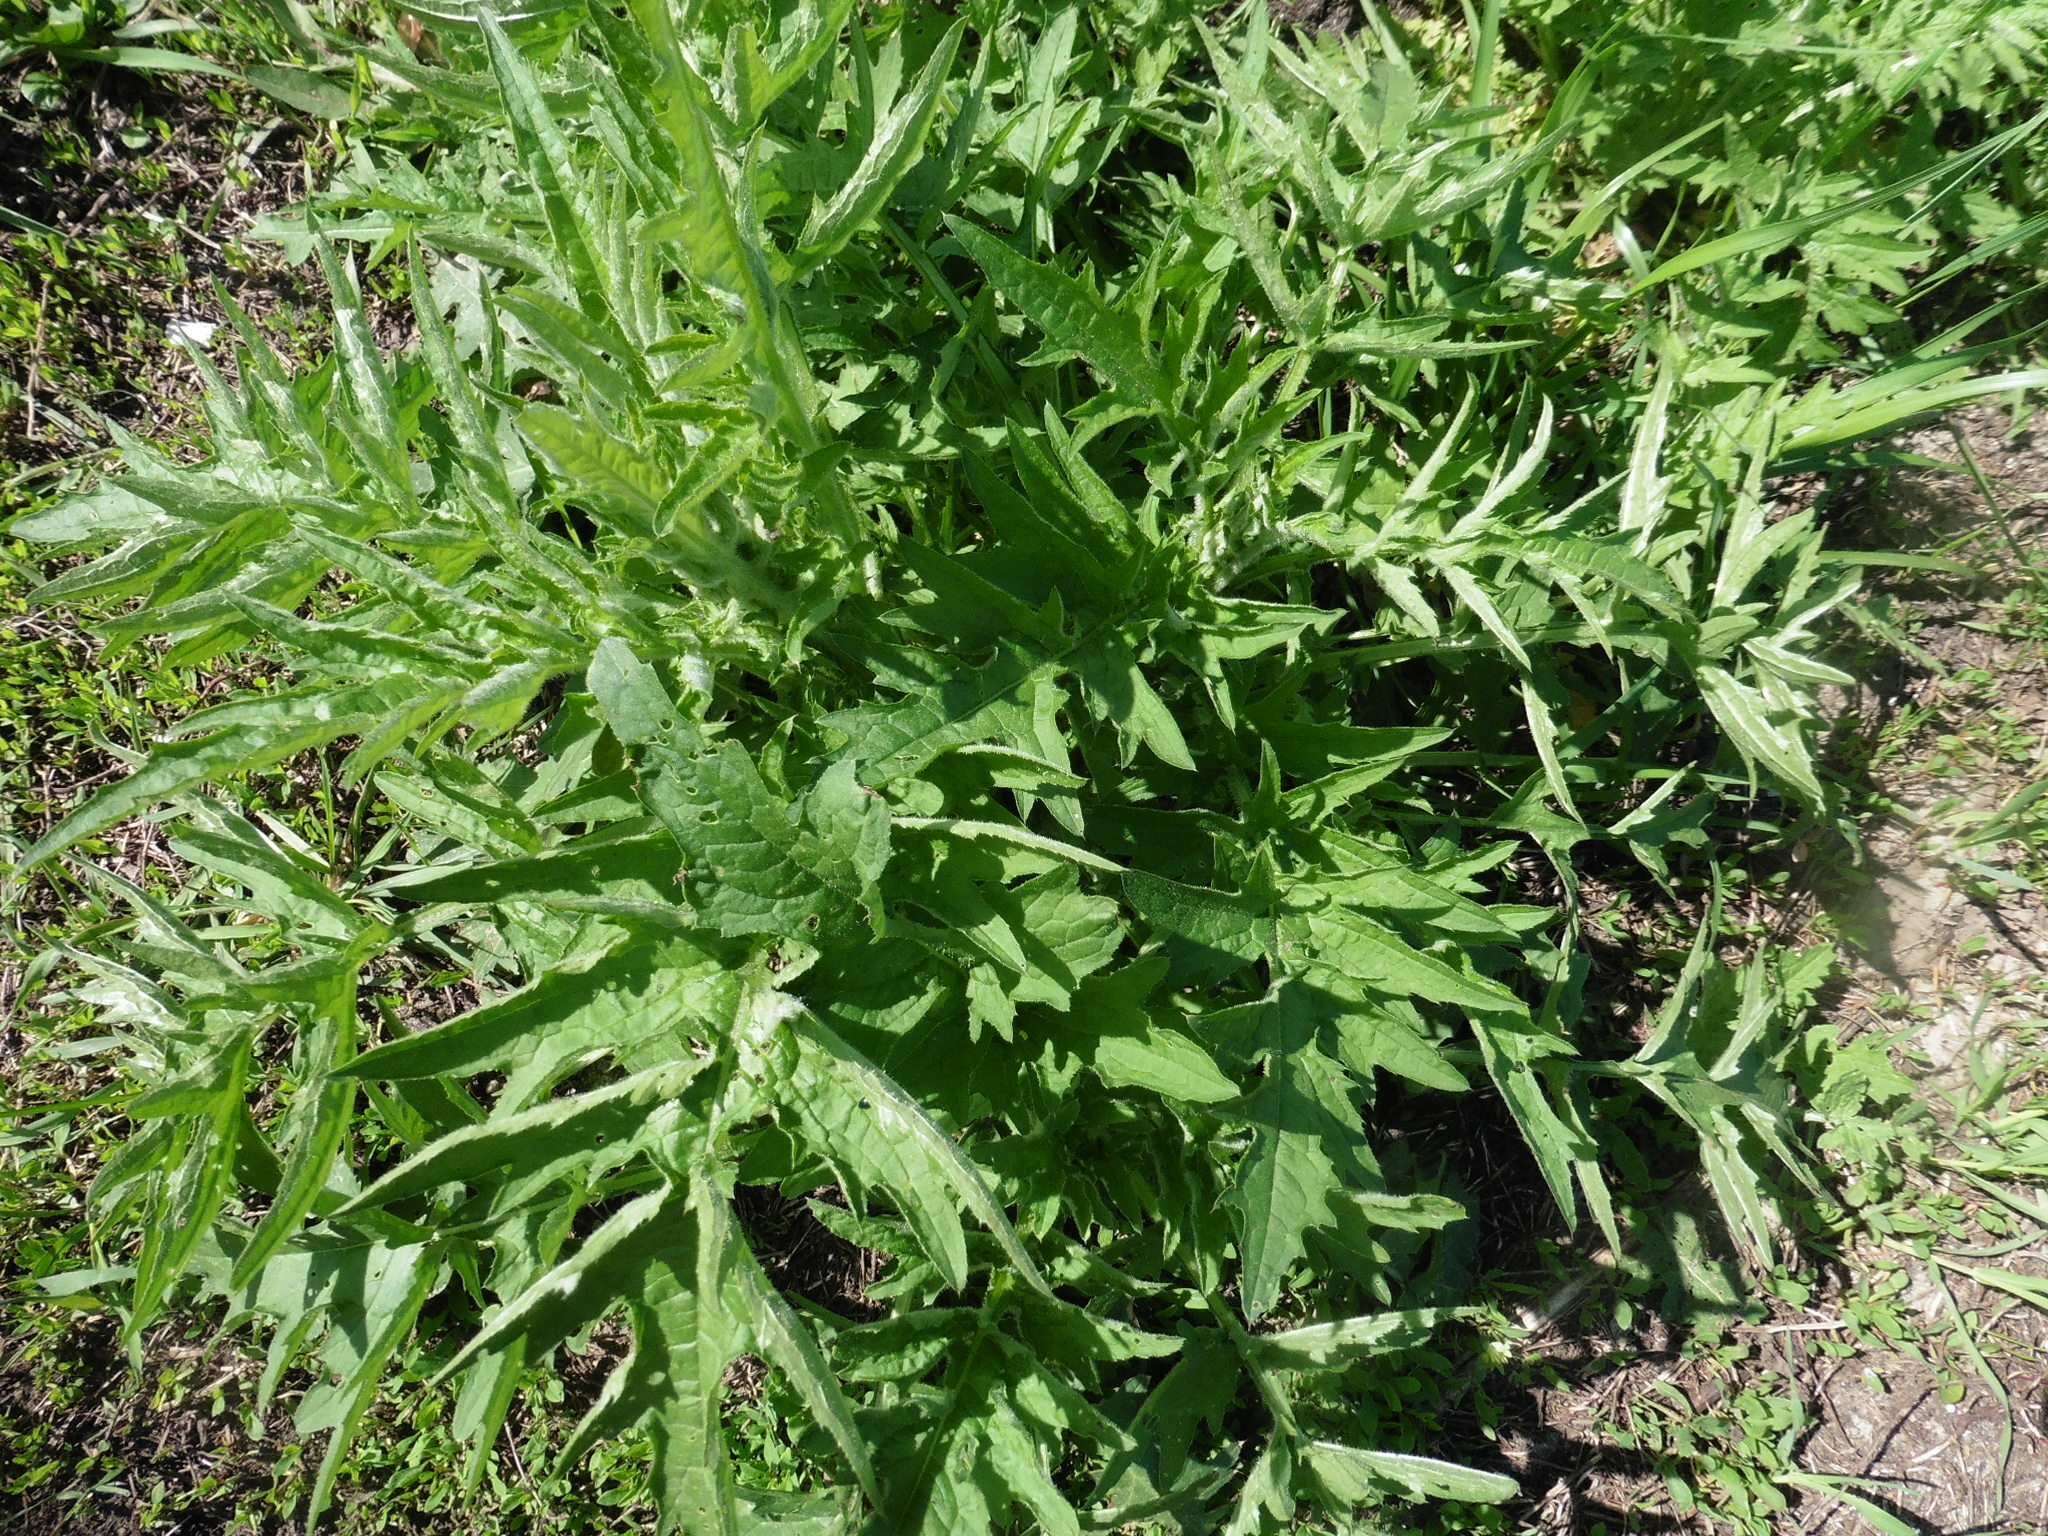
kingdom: Plantae
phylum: Tracheophyta
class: Magnoliopsida
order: Asterales
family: Asteraceae
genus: Carduus
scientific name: Carduus crispus
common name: Welted thistle
